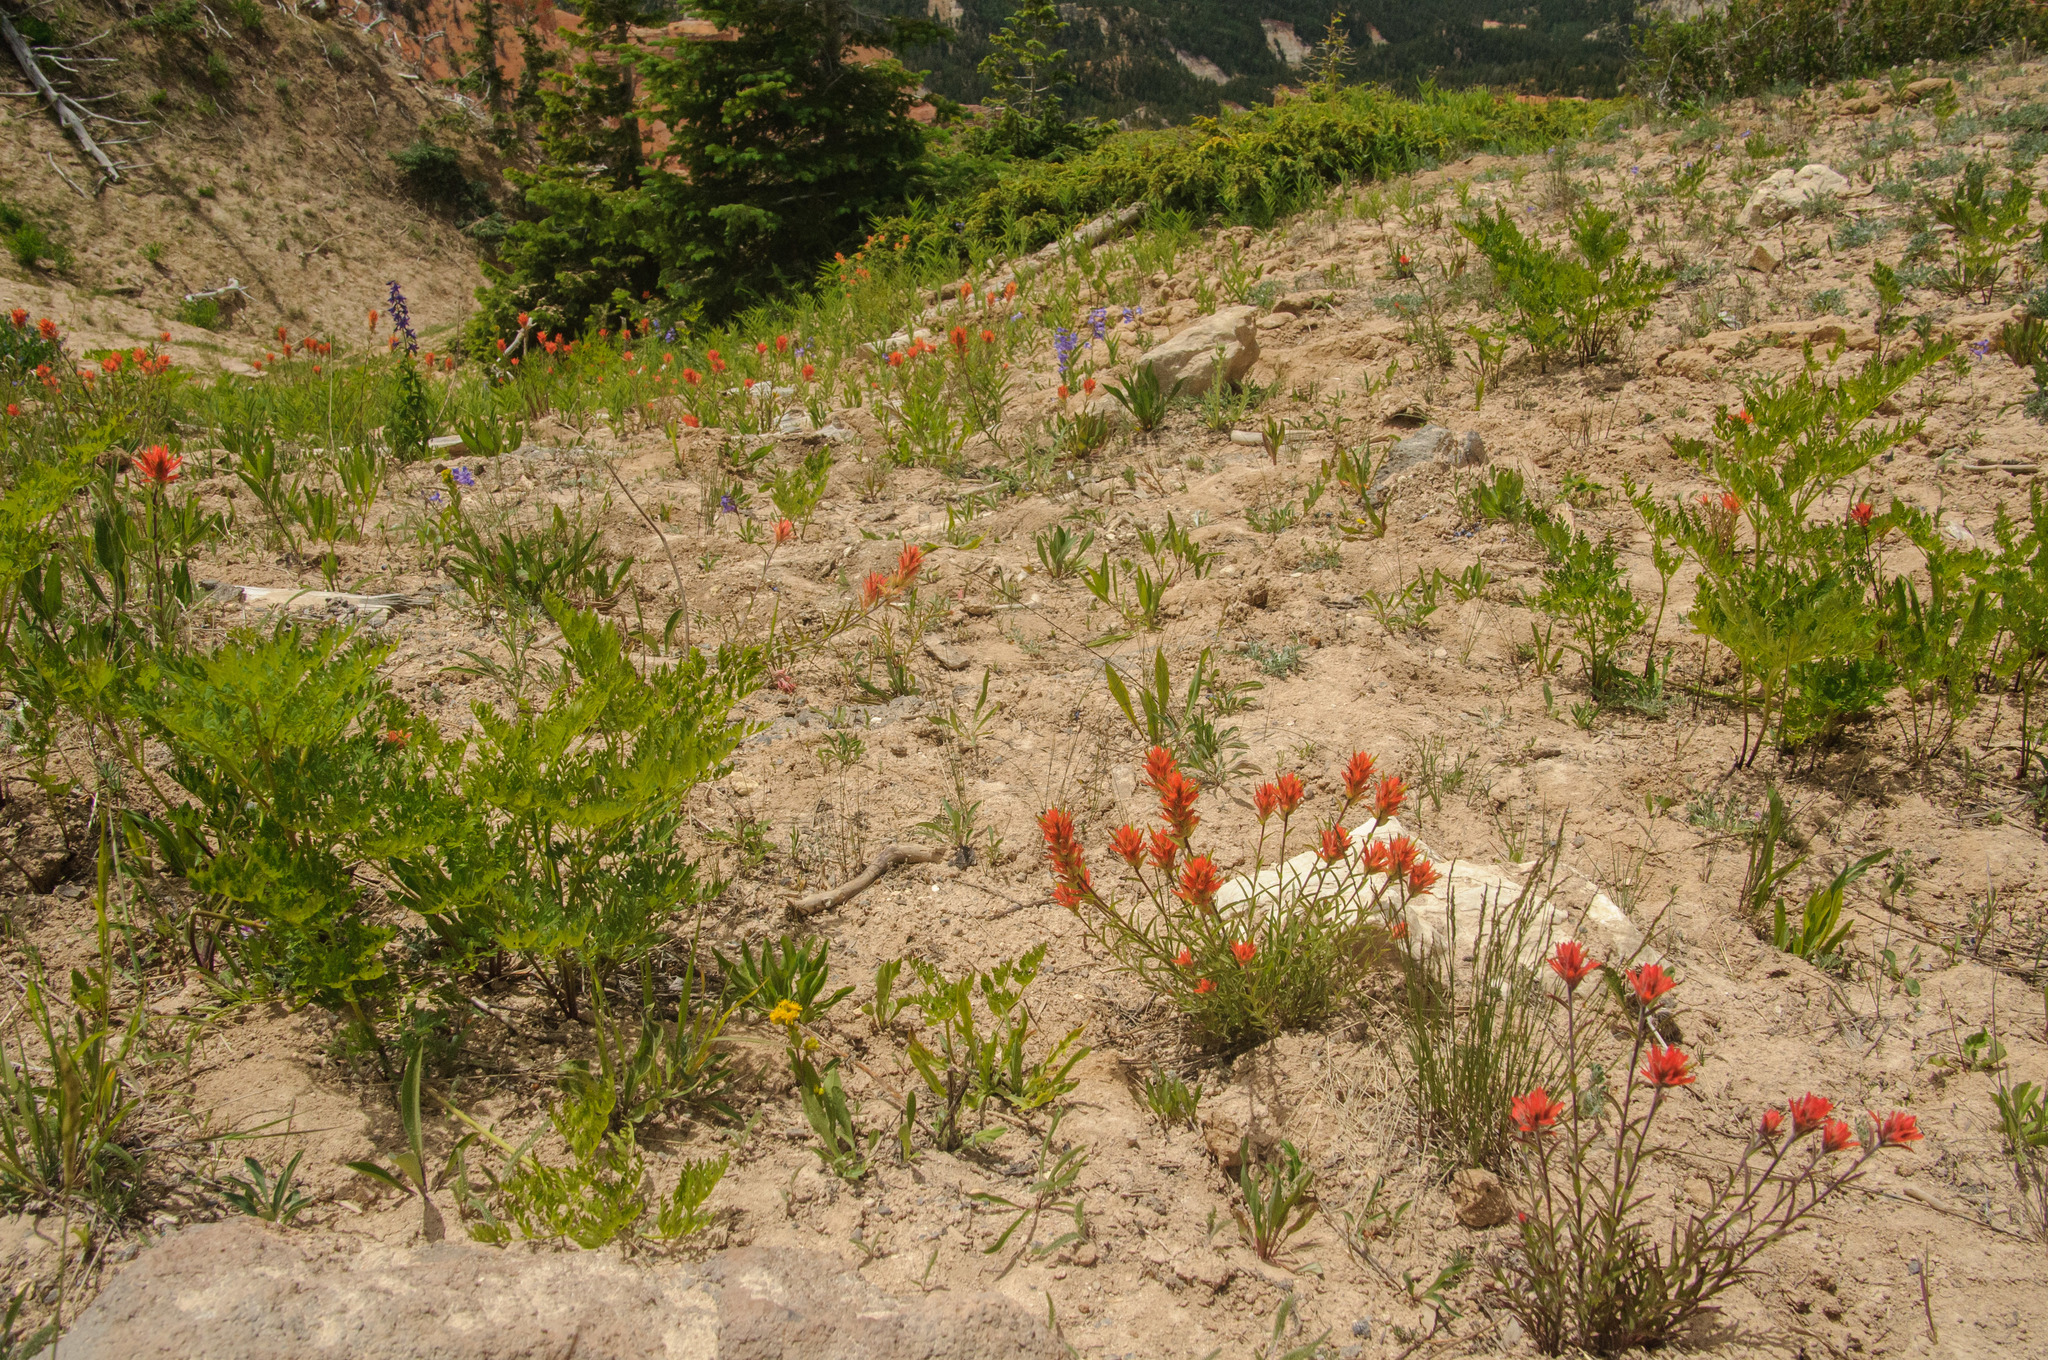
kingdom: Plantae
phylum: Tracheophyta
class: Magnoliopsida
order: Lamiales
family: Orobanchaceae
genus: Castilleja
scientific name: Castilleja miniata
